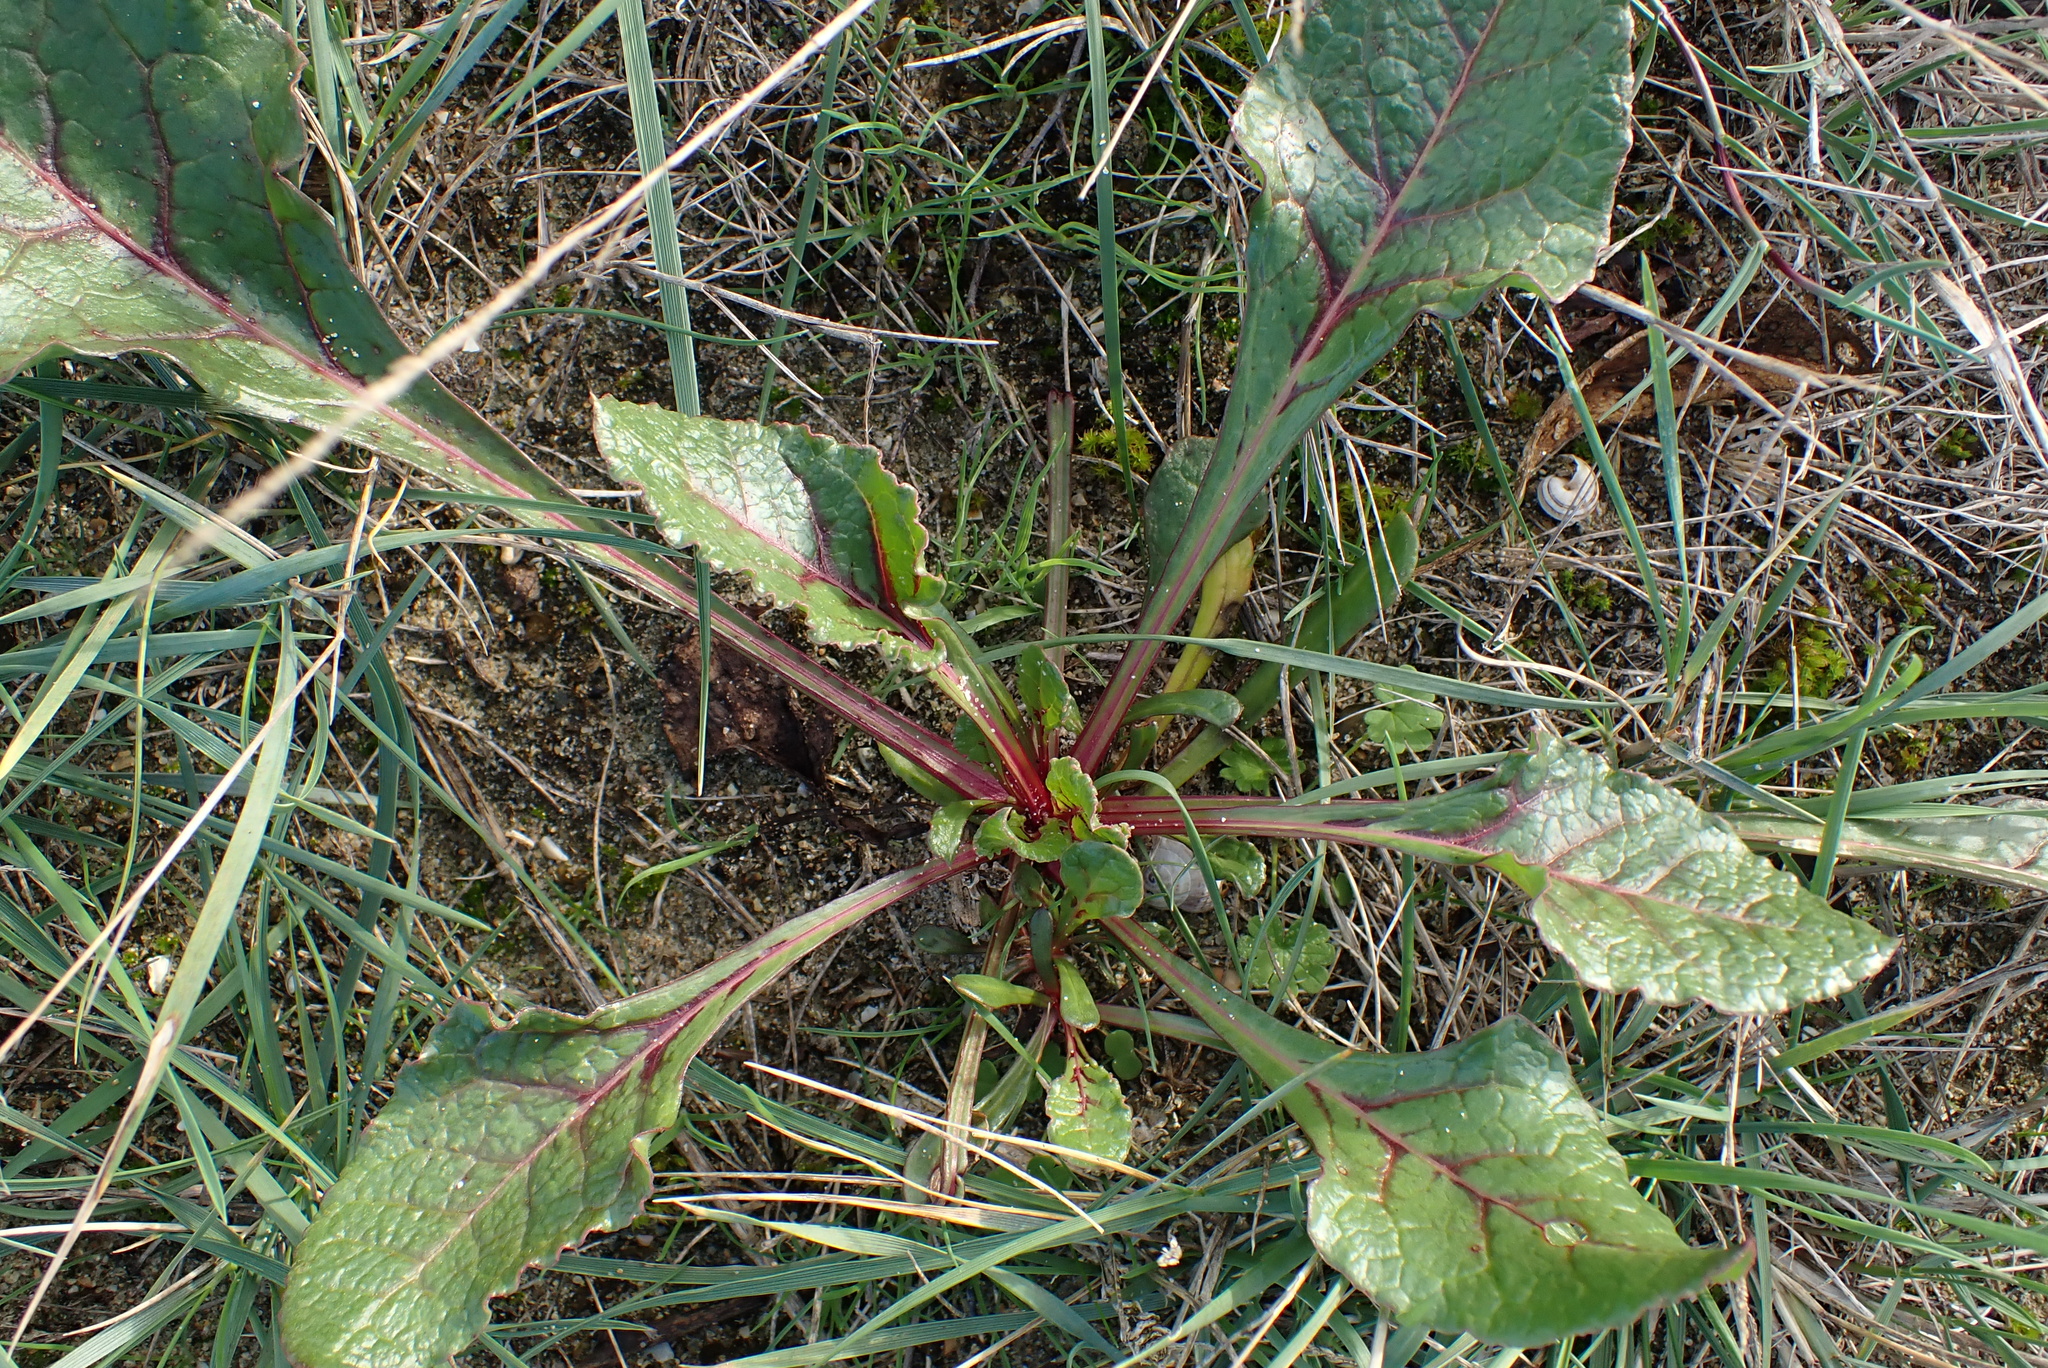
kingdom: Plantae
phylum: Tracheophyta
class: Magnoliopsida
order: Caryophyllales
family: Amaranthaceae
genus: Beta
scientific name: Beta vulgaris
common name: Beet
